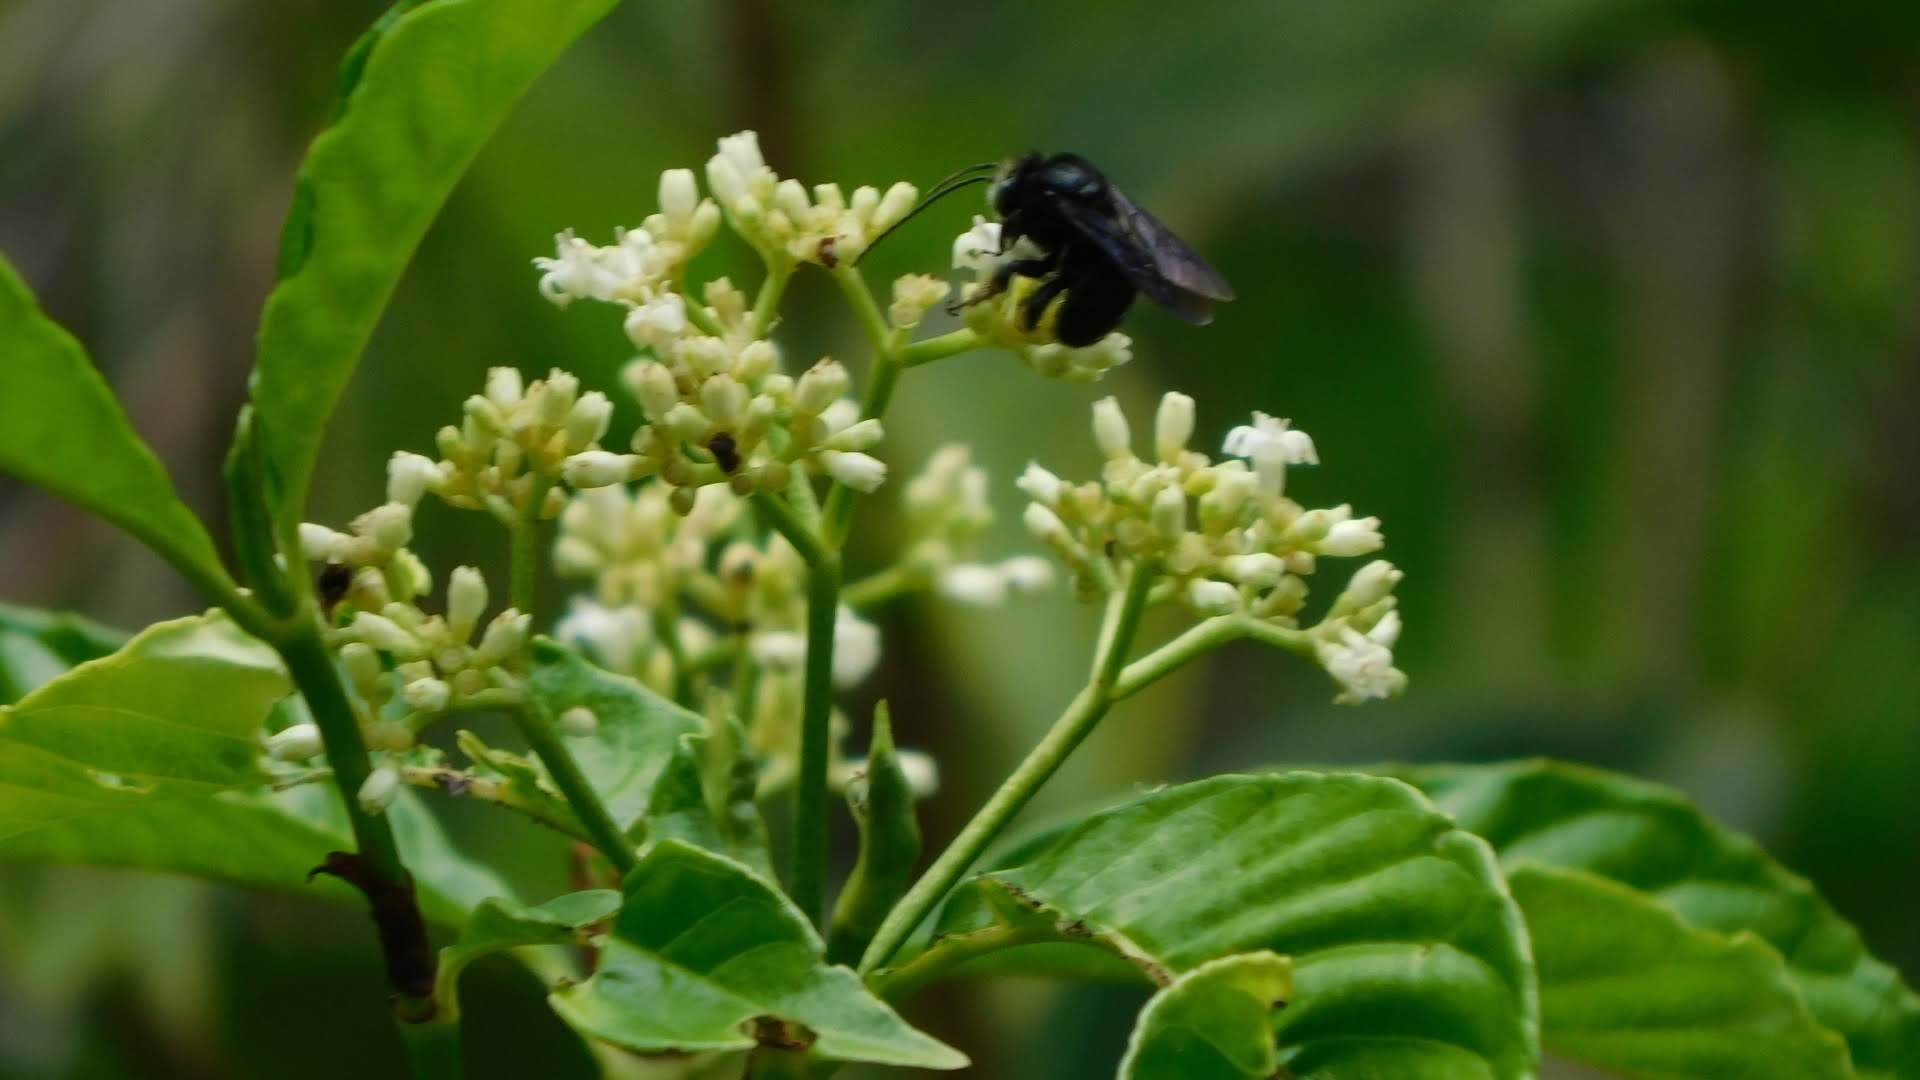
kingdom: Animalia
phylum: Arthropoda
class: Insecta
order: Hymenoptera
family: Apidae
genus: Melissodes
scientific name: Melissodes bimaculatus
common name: Two-spotted long-horned bee
